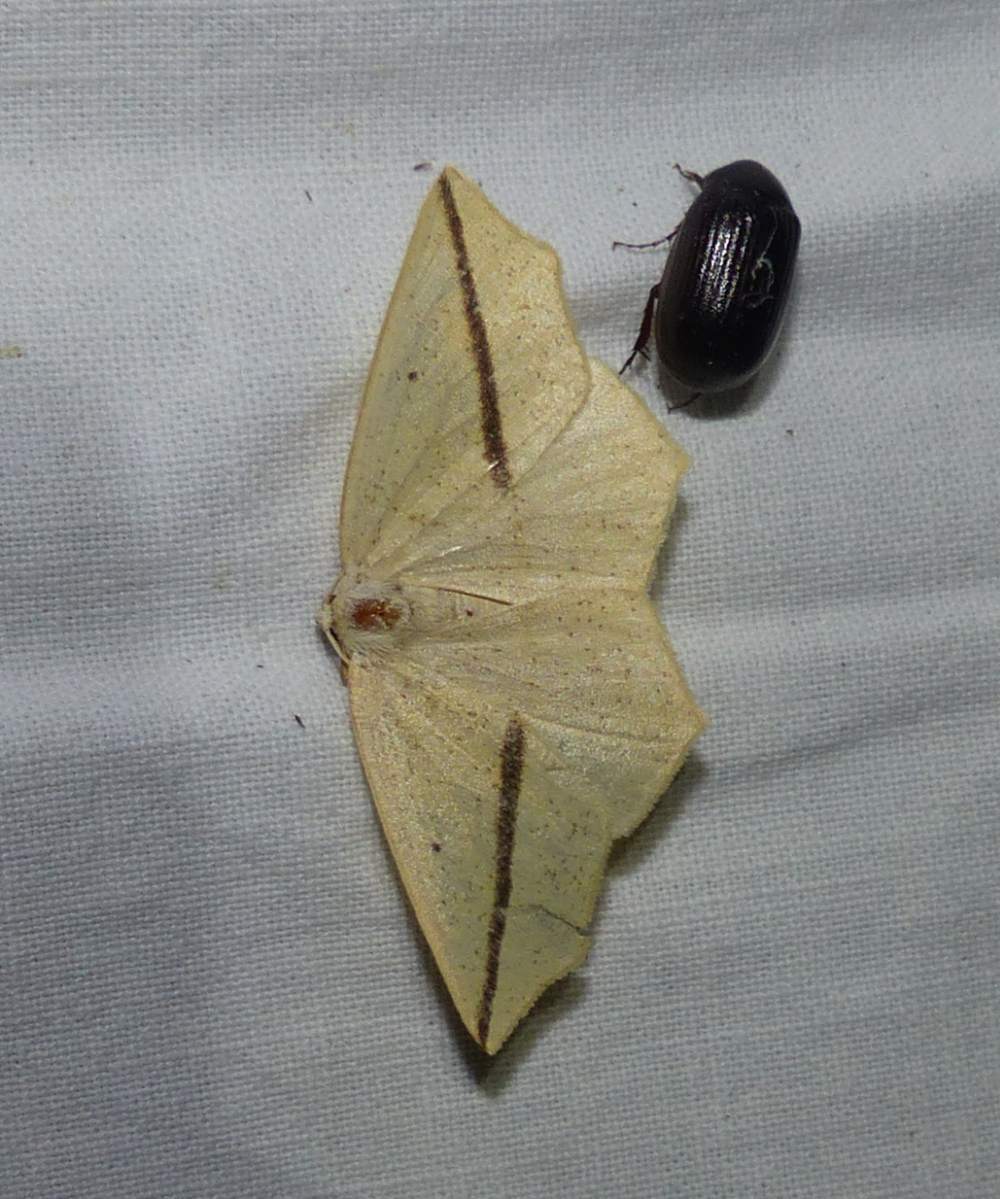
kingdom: Animalia
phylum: Arthropoda
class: Insecta
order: Lepidoptera
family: Geometridae
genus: Tetracis
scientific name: Tetracis crocallata
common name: Yellow slant-line
